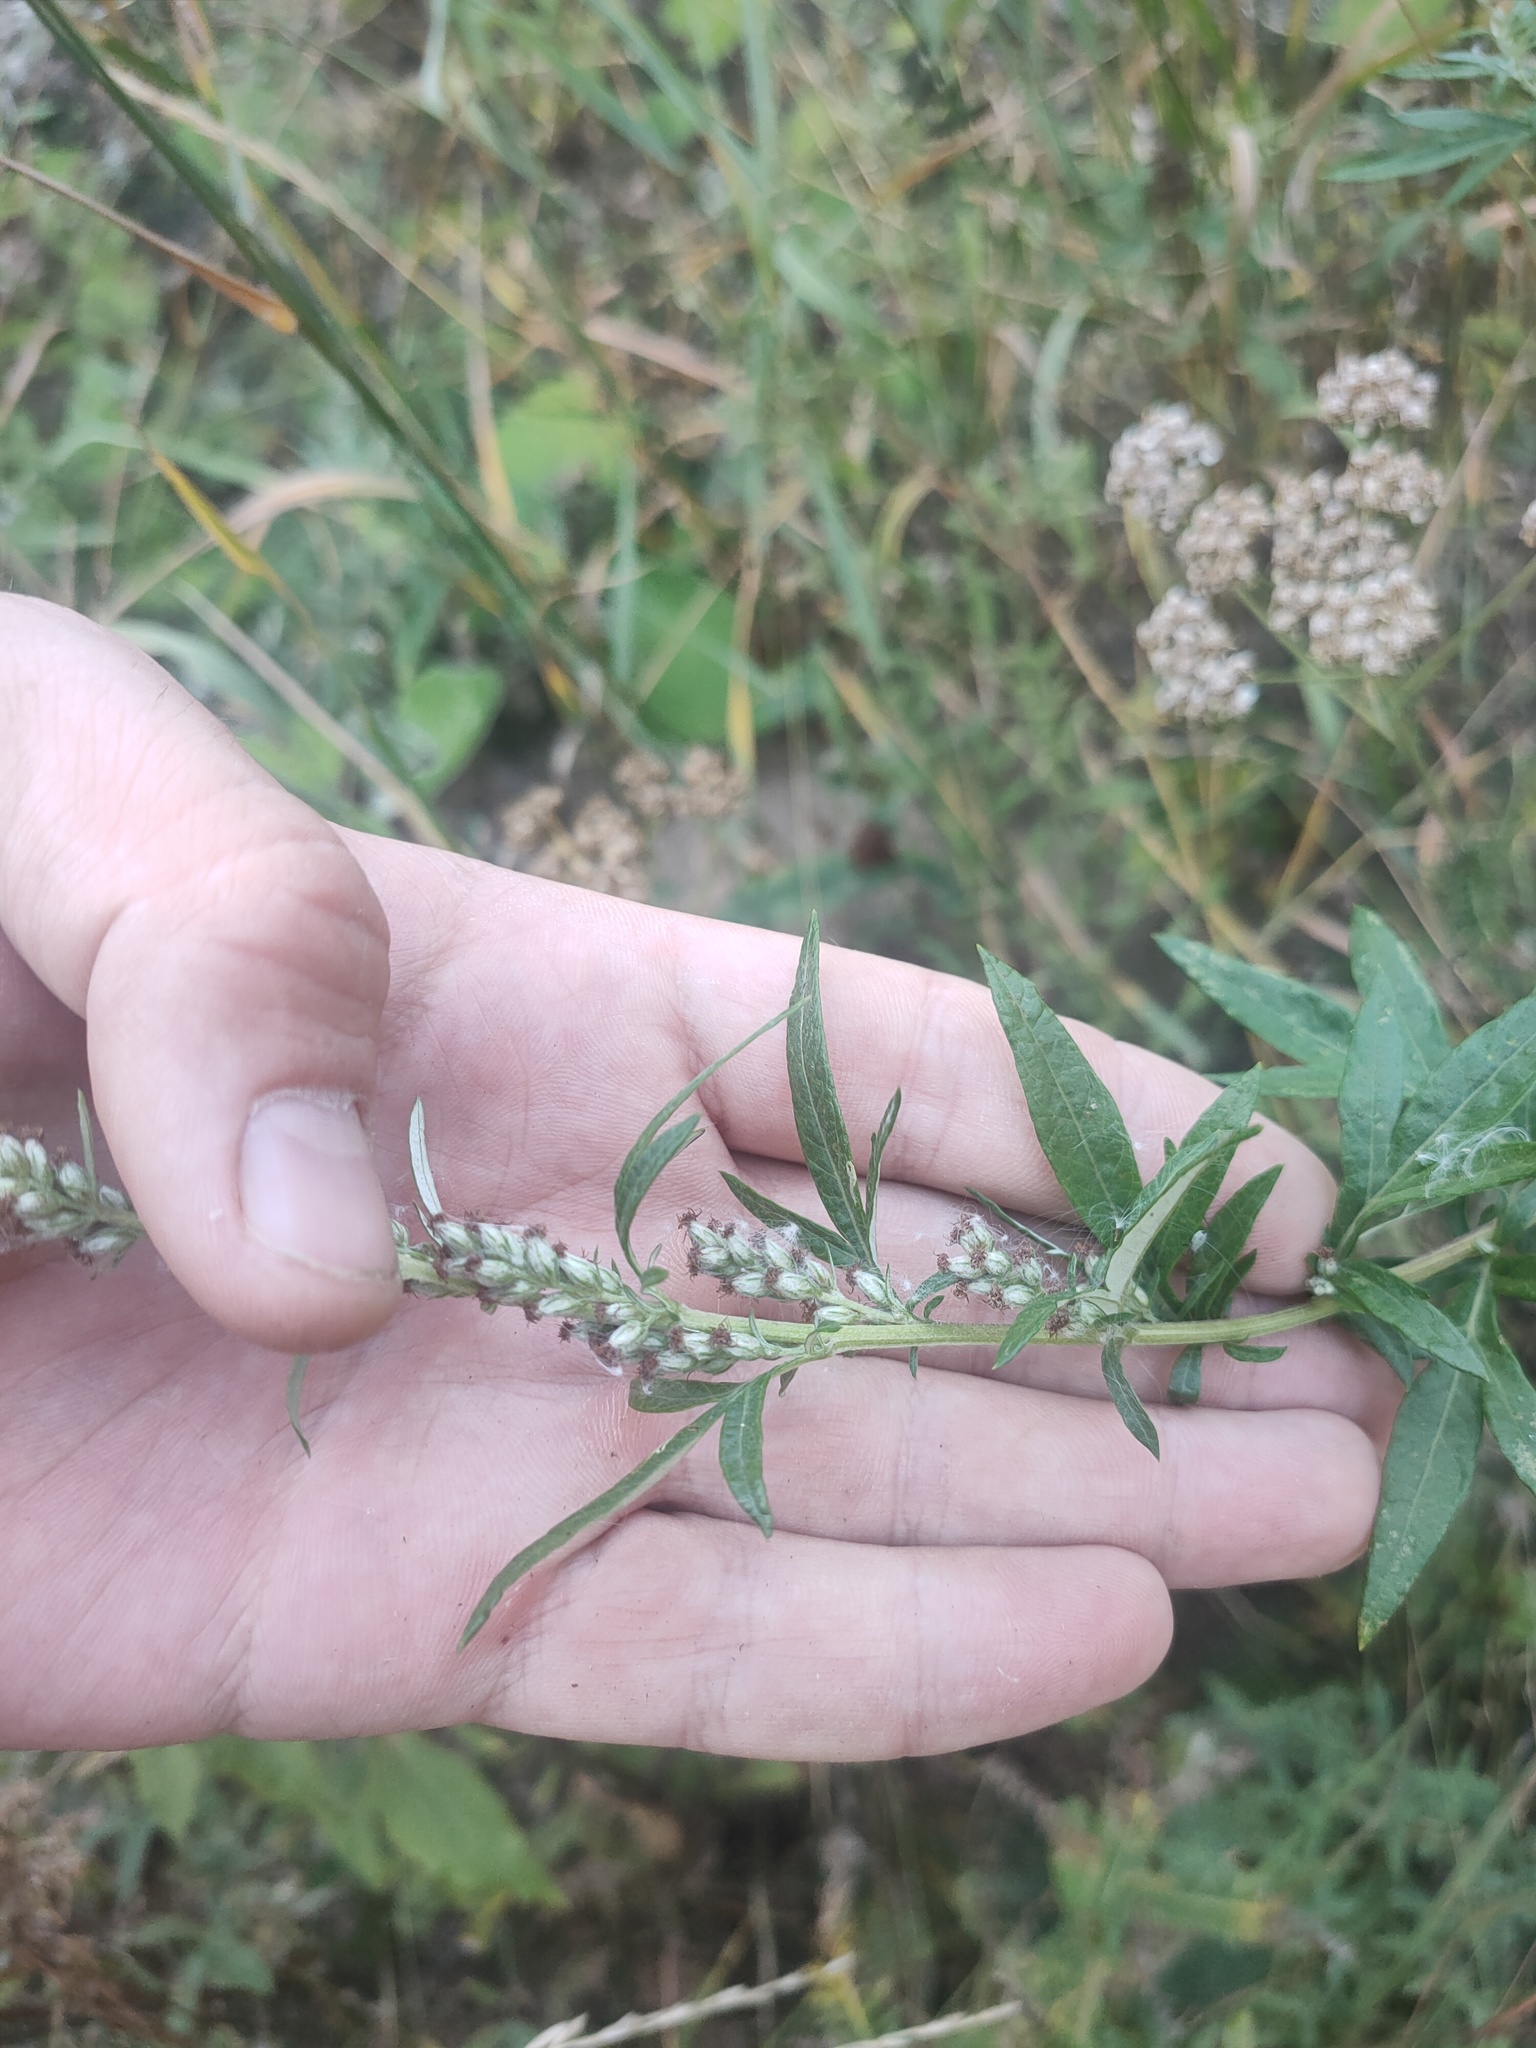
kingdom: Plantae
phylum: Tracheophyta
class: Magnoliopsida
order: Asterales
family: Asteraceae
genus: Artemisia
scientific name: Artemisia vulgaris
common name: Mugwort
